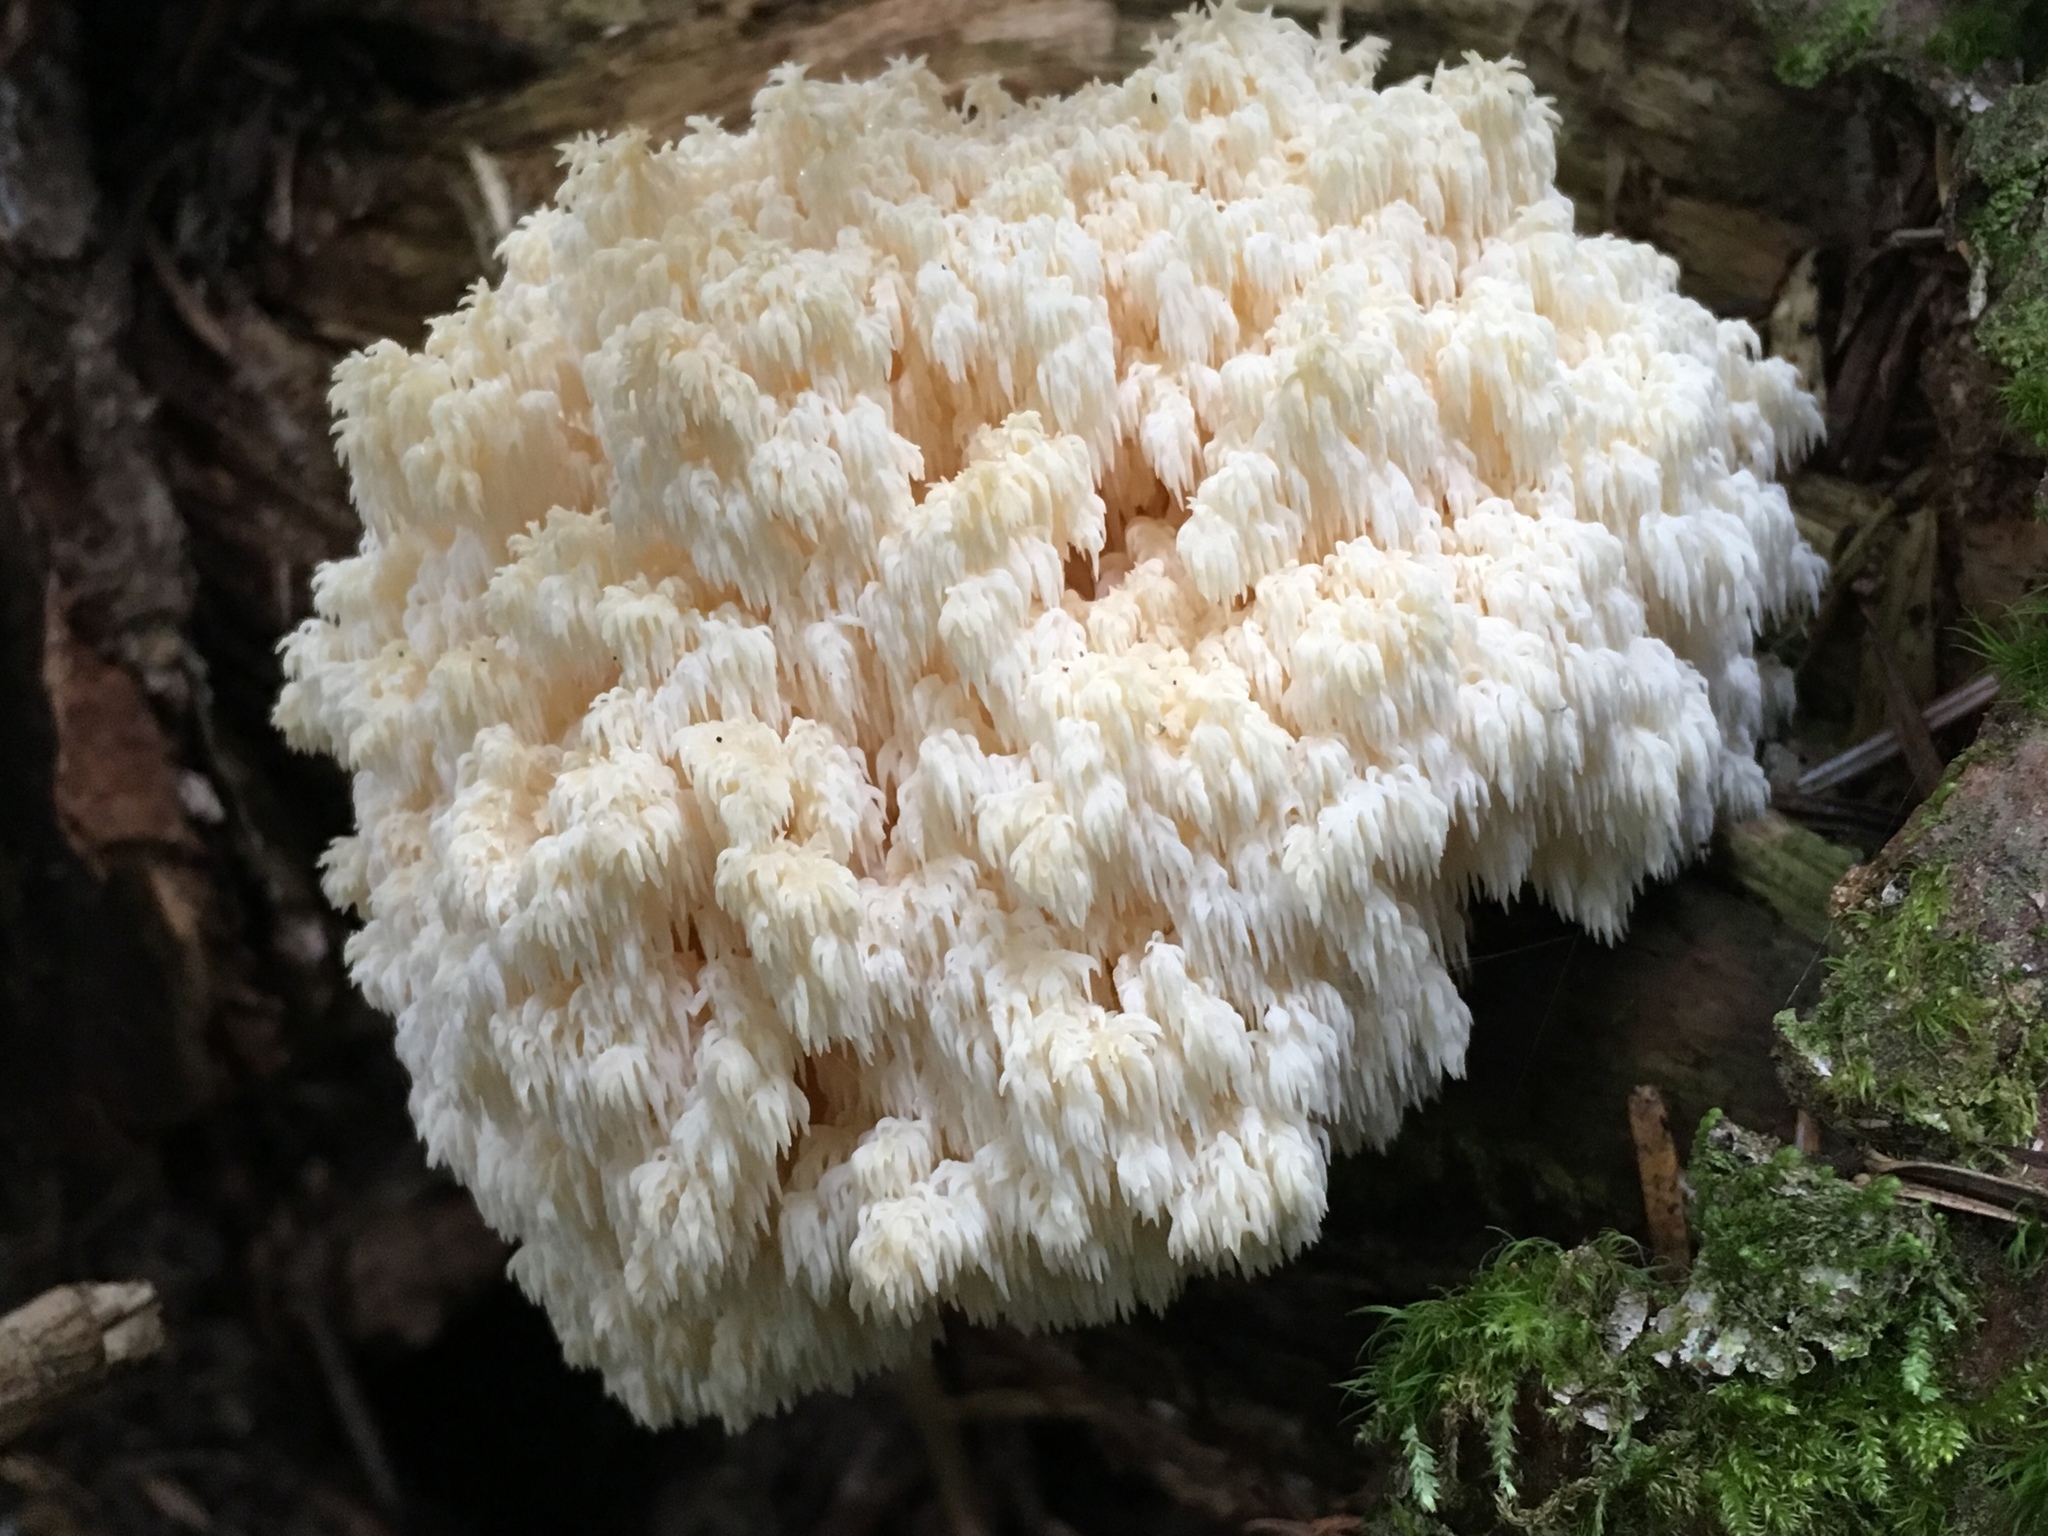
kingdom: Fungi
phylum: Basidiomycota
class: Agaricomycetes
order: Russulales
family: Hericiaceae
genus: Hericium
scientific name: Hericium abietis
